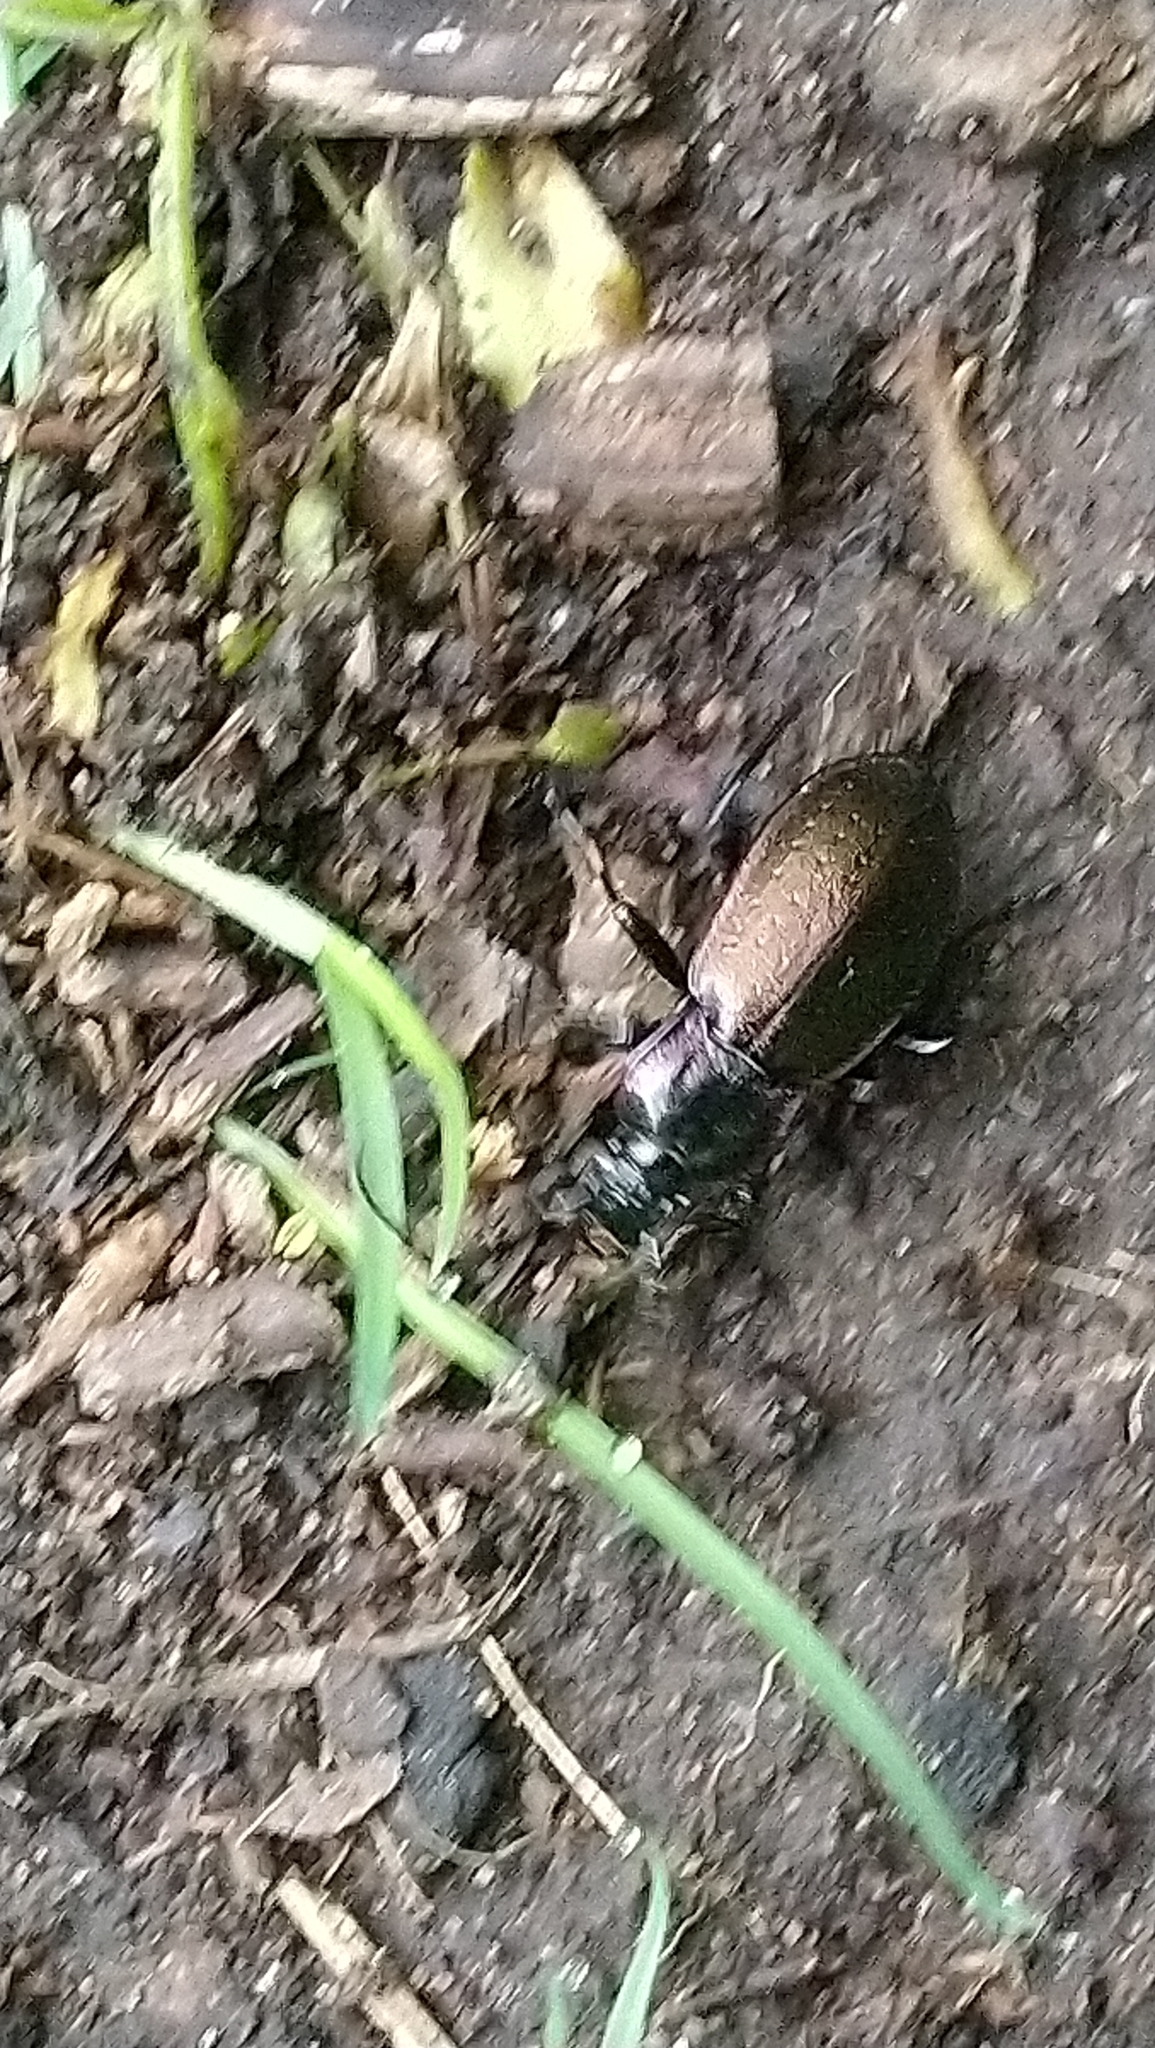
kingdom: Animalia
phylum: Arthropoda
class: Insecta
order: Coleoptera
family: Carabidae
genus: Carabus
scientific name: Carabus nemoralis
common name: European ground beetle
